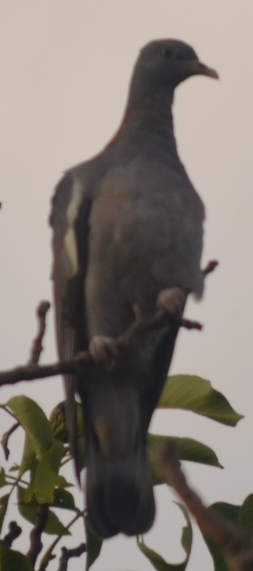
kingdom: Animalia
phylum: Chordata
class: Aves
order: Columbiformes
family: Columbidae
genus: Columba
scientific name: Columba palumbus
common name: Common wood pigeon
